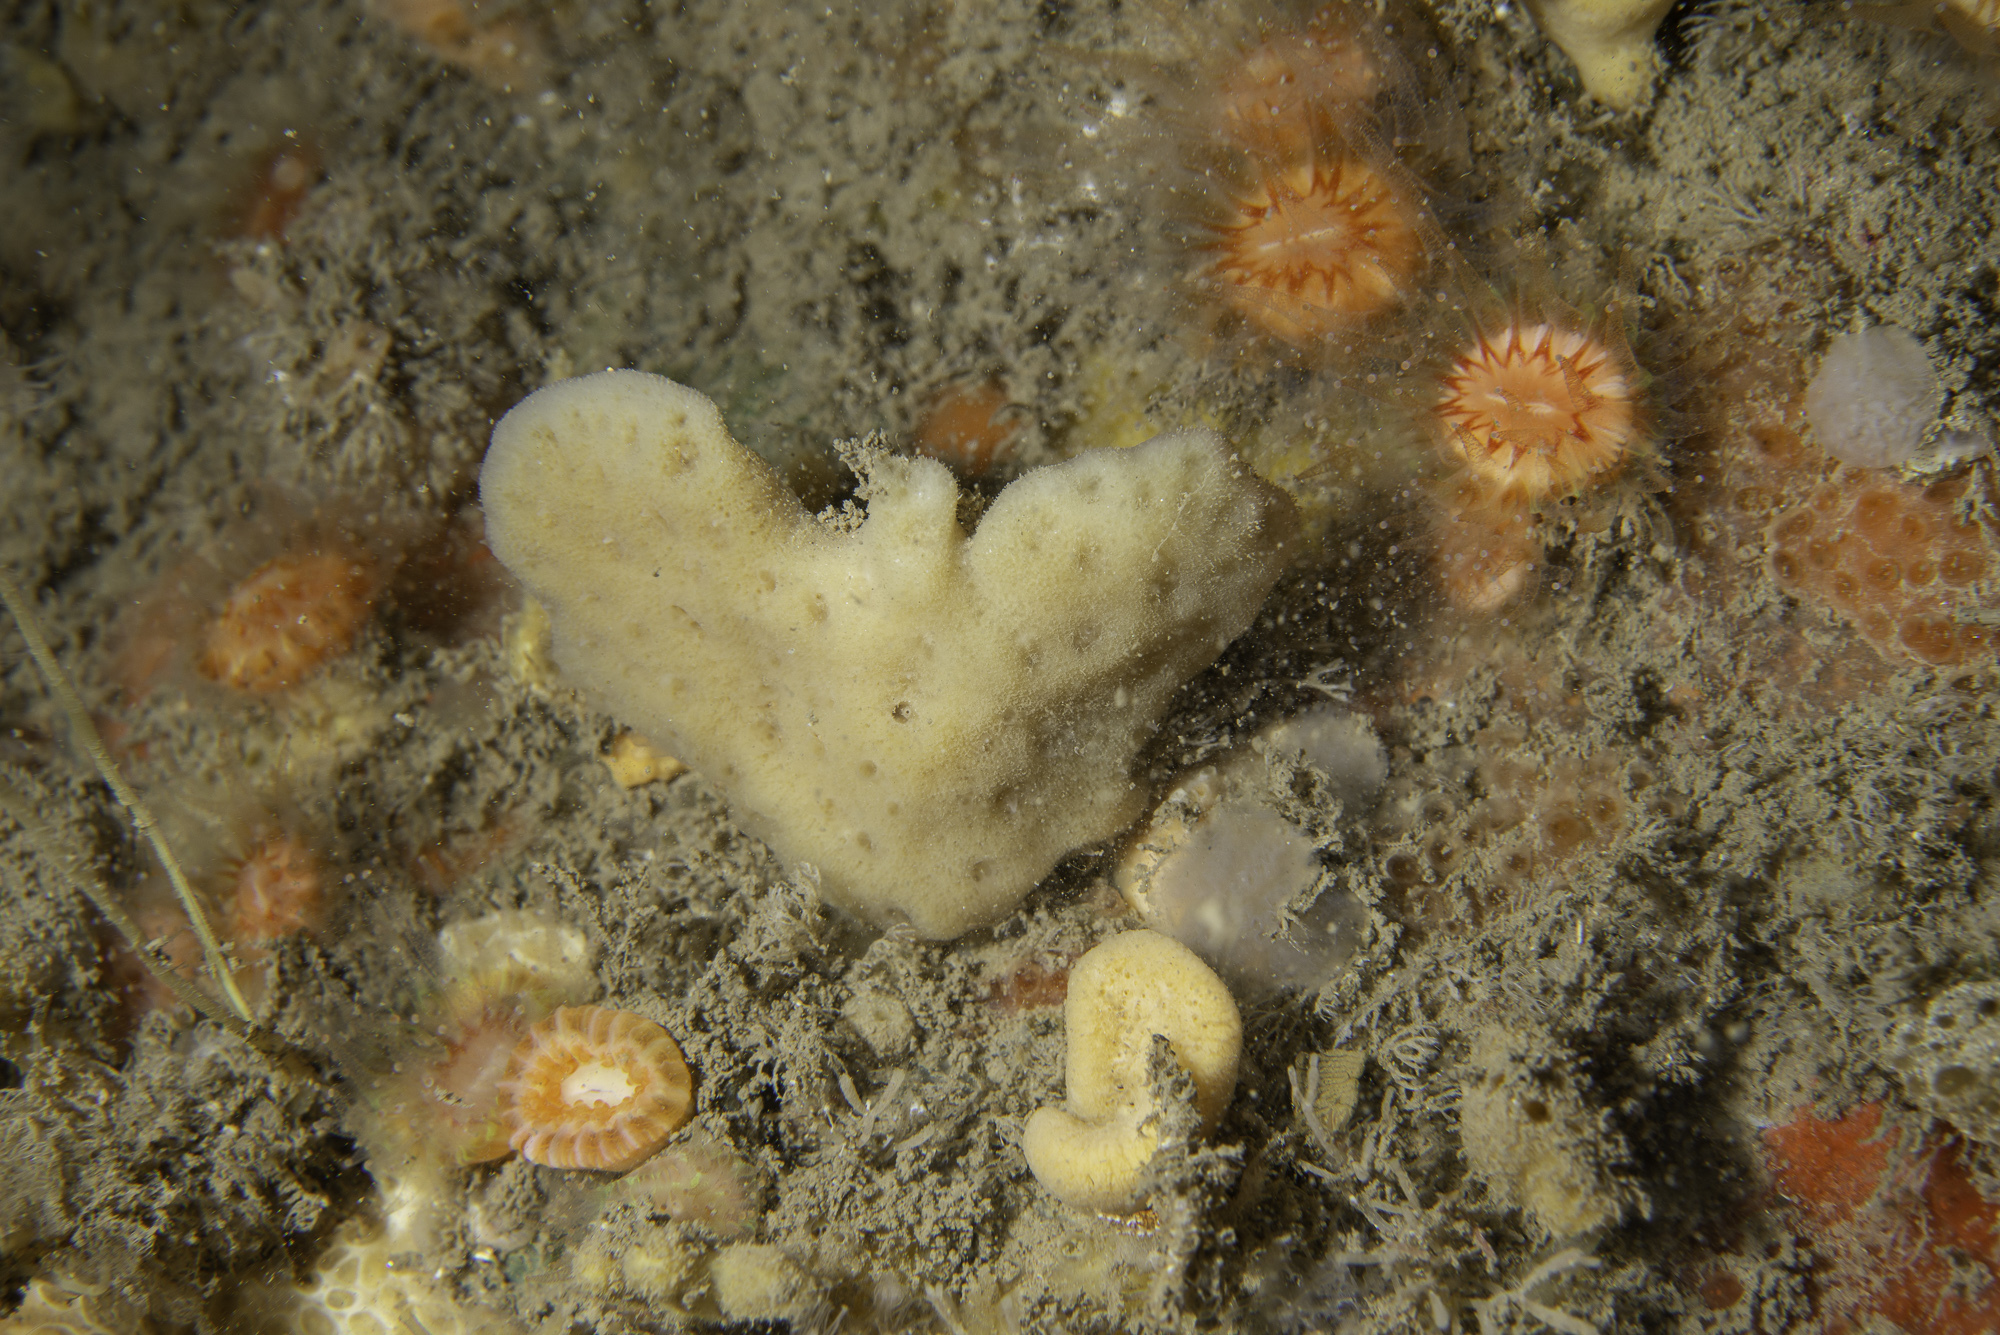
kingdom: Animalia
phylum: Porifera
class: Demospongiae
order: Dendroceratida
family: Dictyodendrillidae
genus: Spongionella
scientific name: Spongionella pulchella
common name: Gorgeous horny sponge
